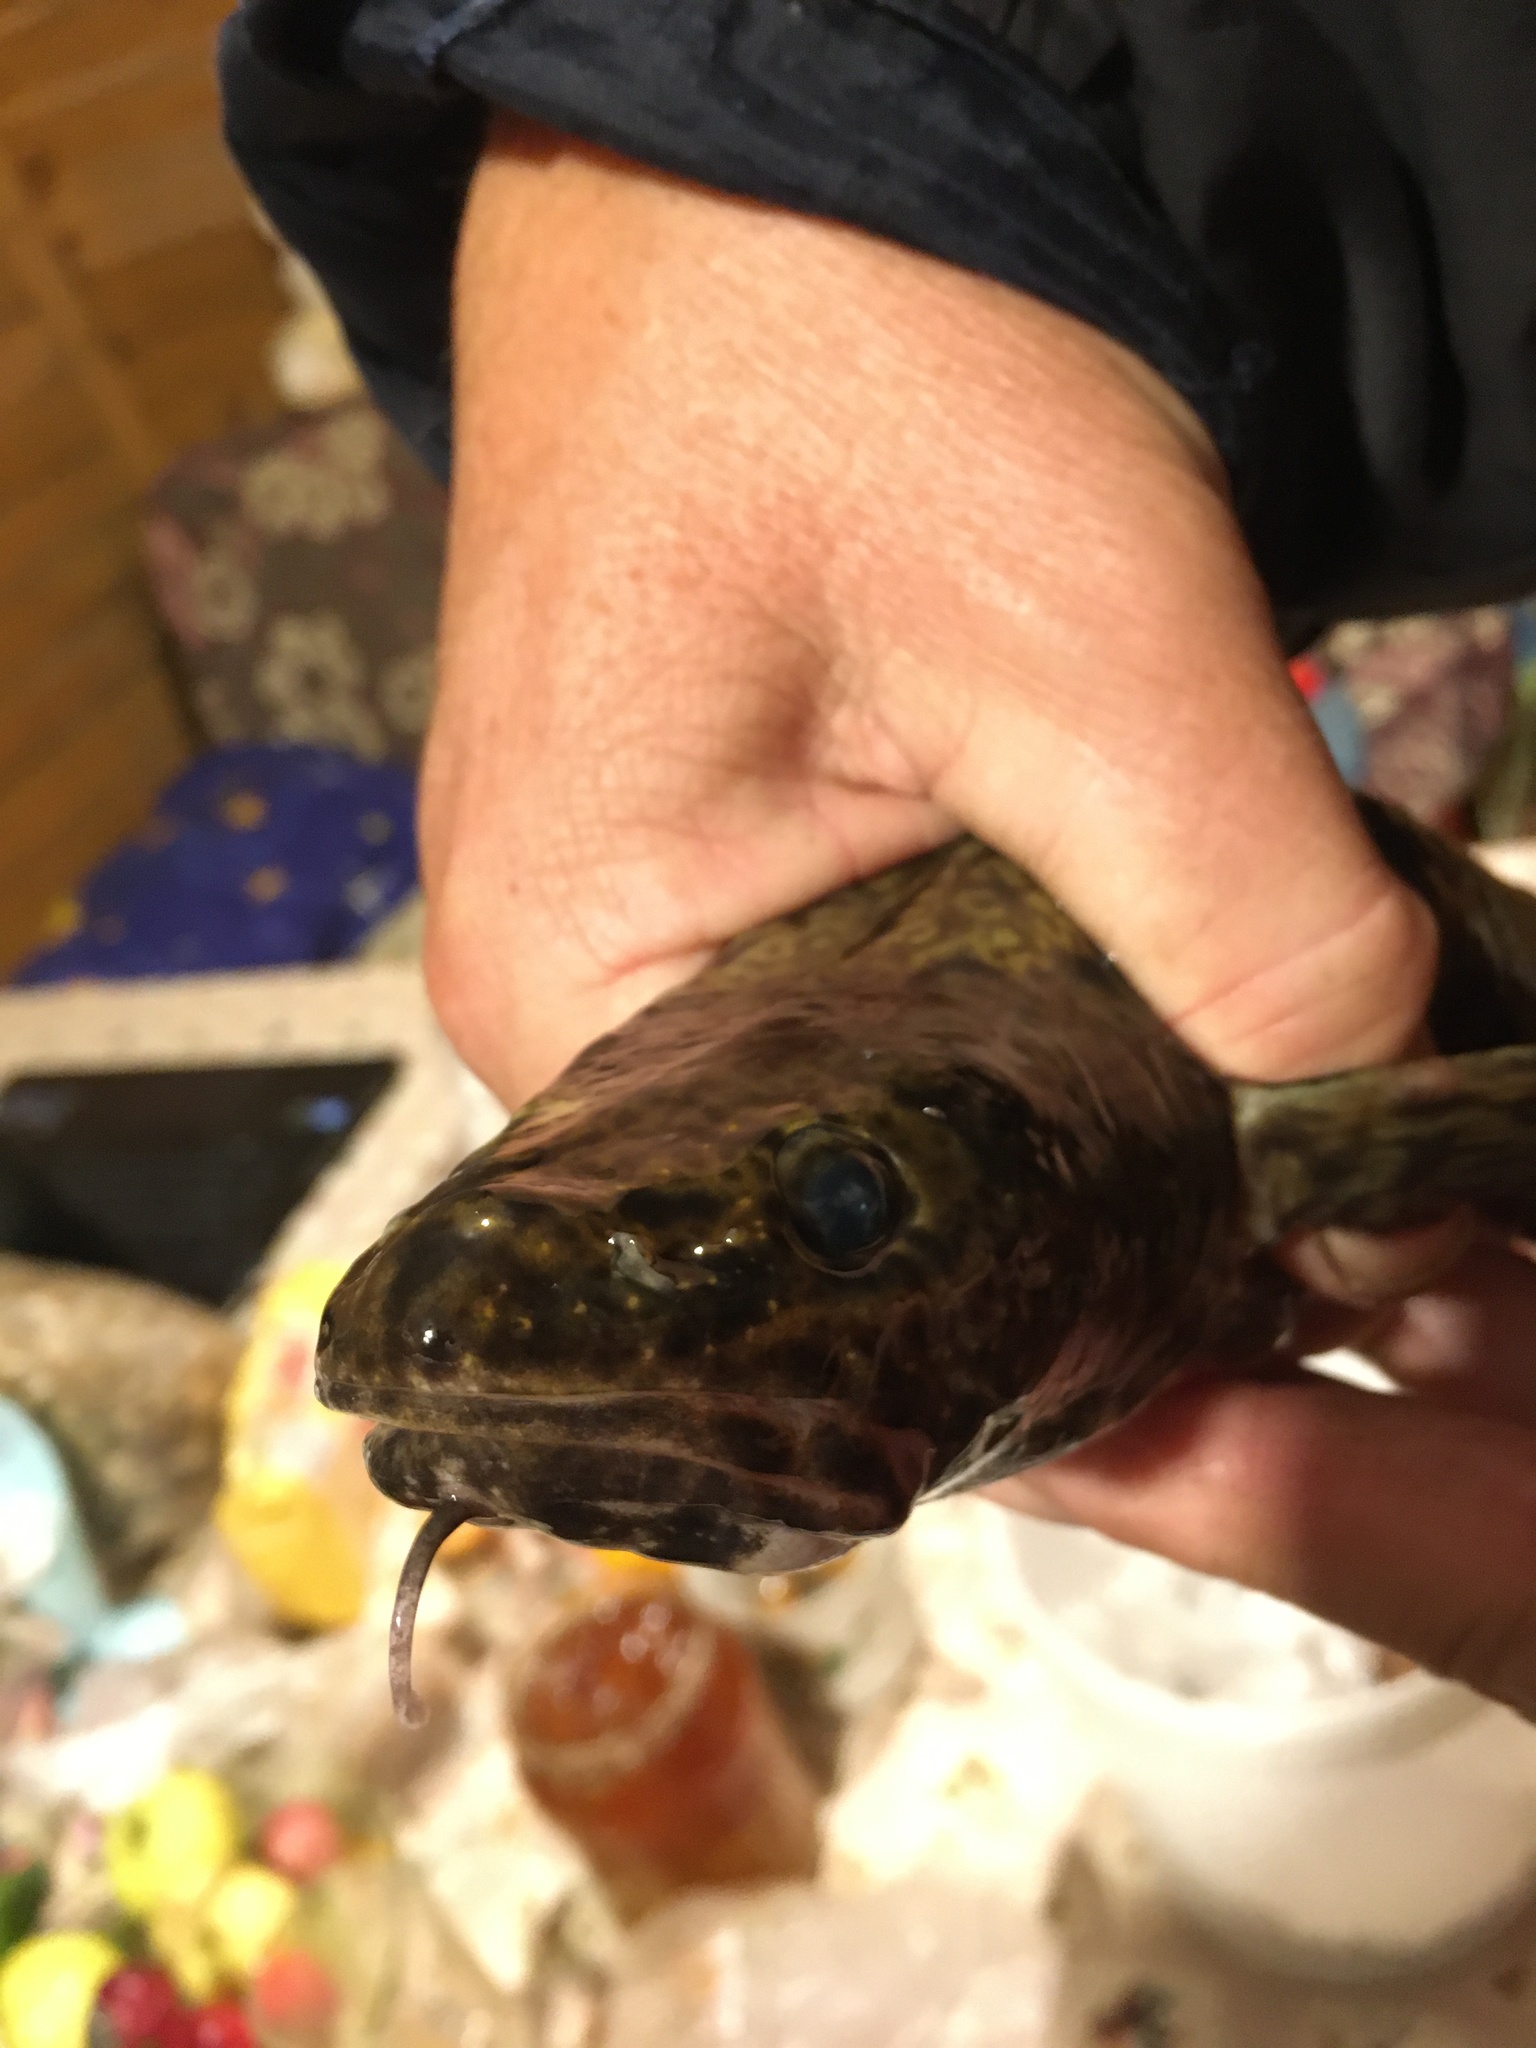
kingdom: Animalia
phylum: Chordata
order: Gadiformes
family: Lotidae
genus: Lota
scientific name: Lota lota
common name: Burbot
